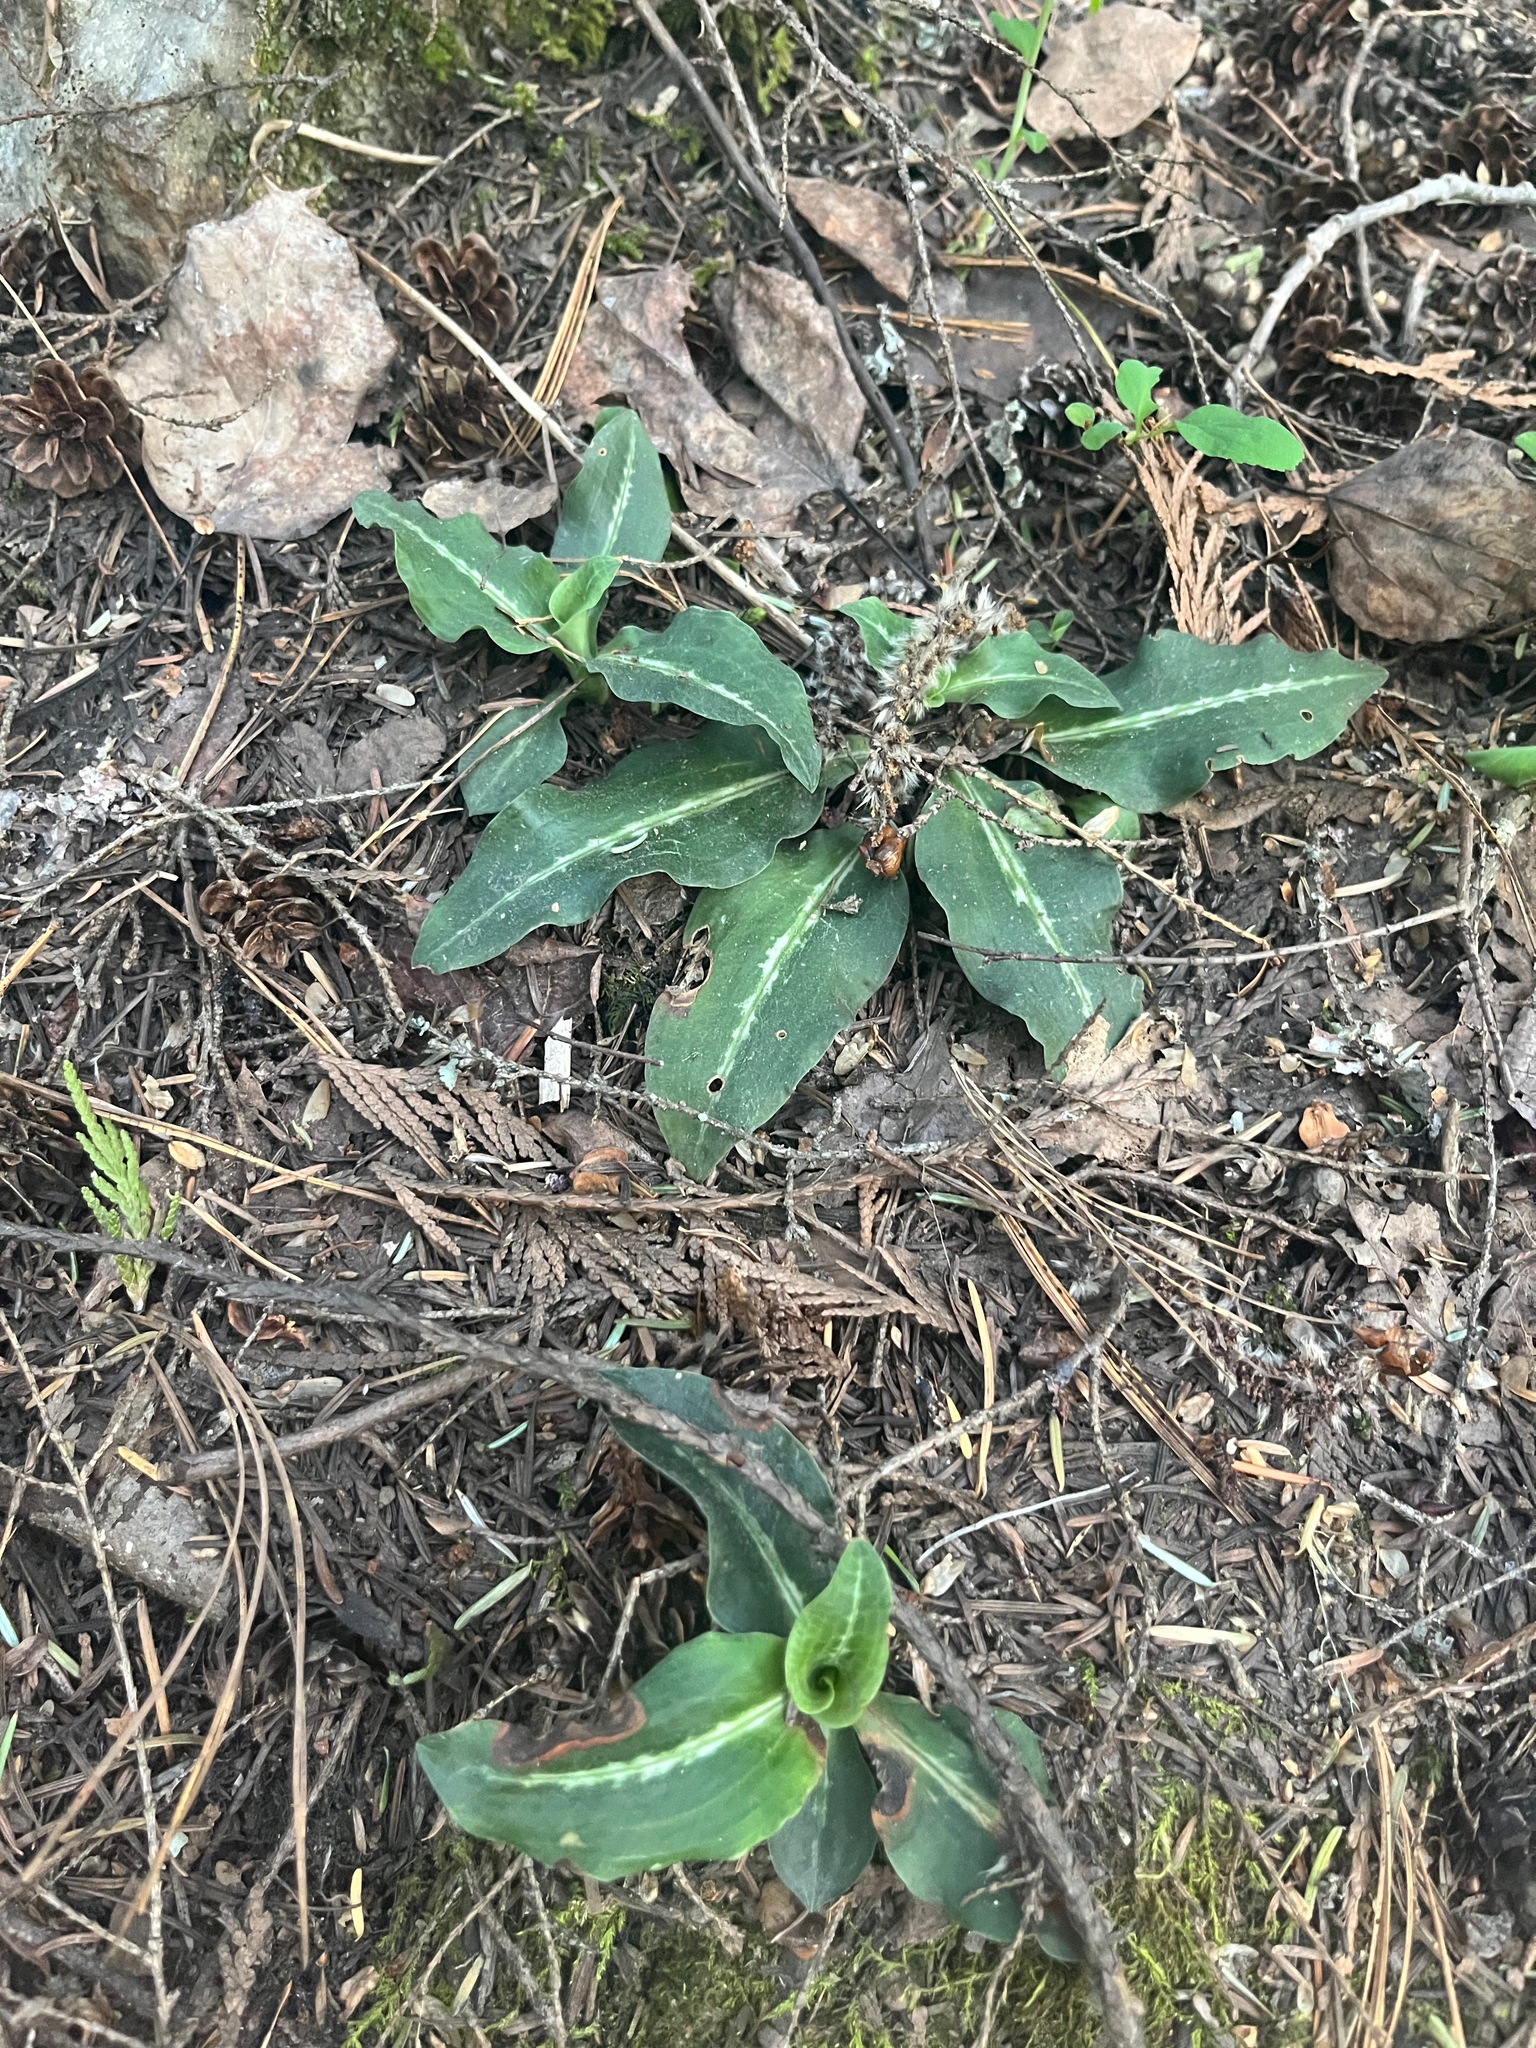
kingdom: Plantae
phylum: Tracheophyta
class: Liliopsida
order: Asparagales
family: Orchidaceae
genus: Goodyera
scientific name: Goodyera oblongifolia
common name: Giant rattlesnake-plantain
